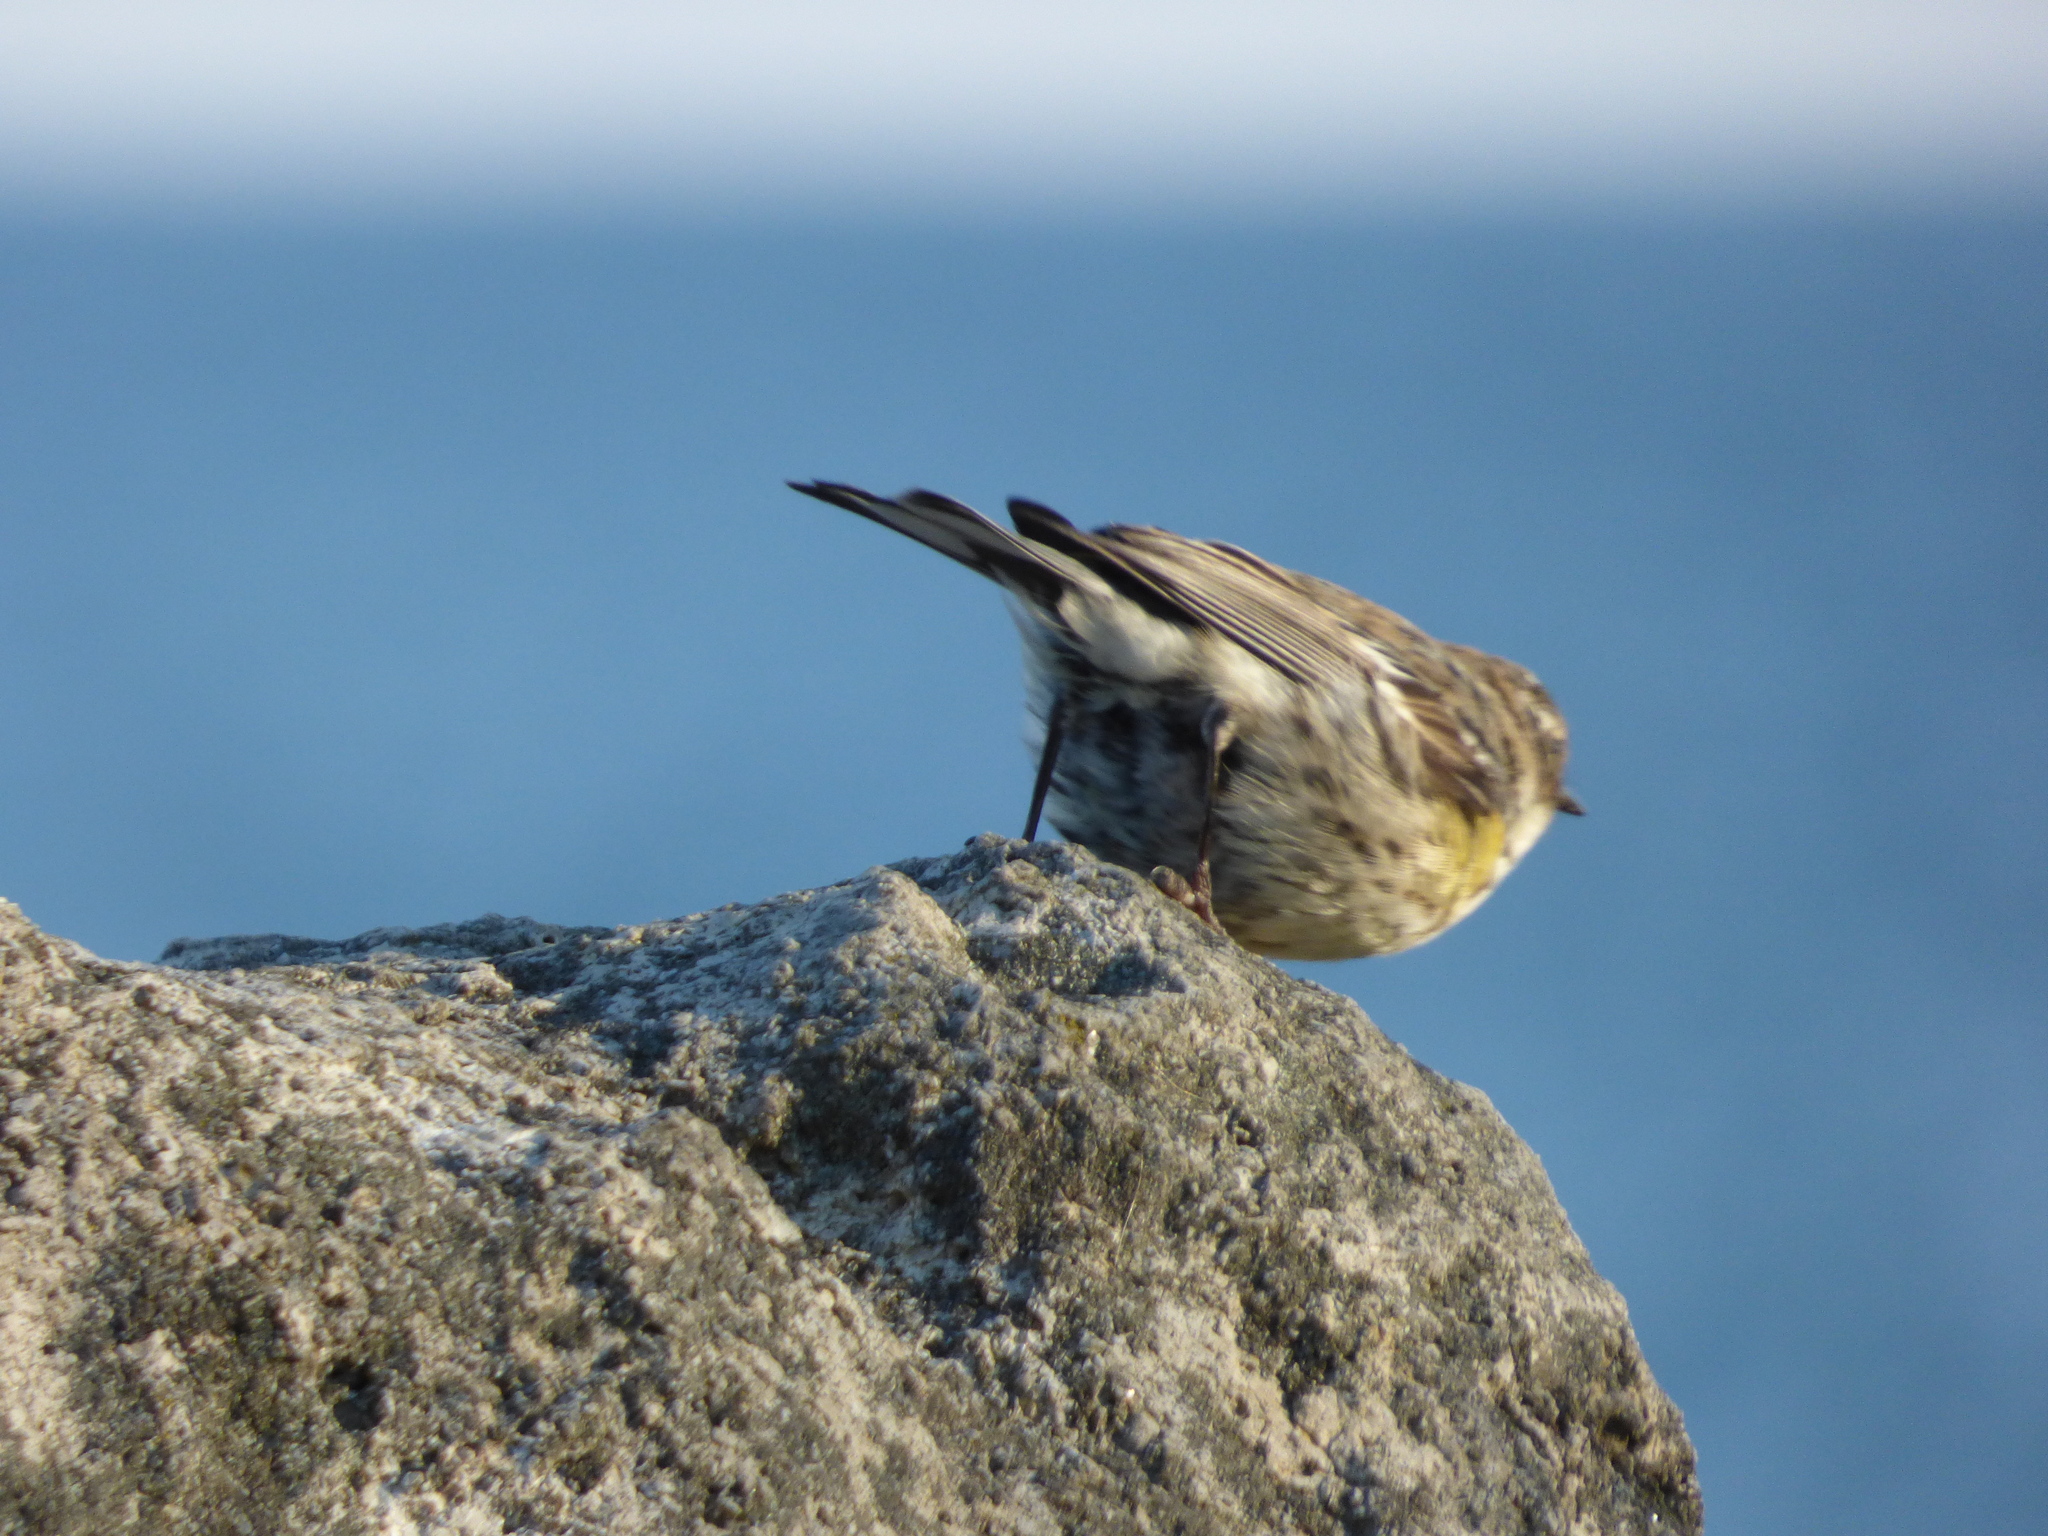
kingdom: Animalia
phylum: Chordata
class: Aves
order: Passeriformes
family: Parulidae
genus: Setophaga
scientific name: Setophaga coronata
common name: Myrtle warbler
